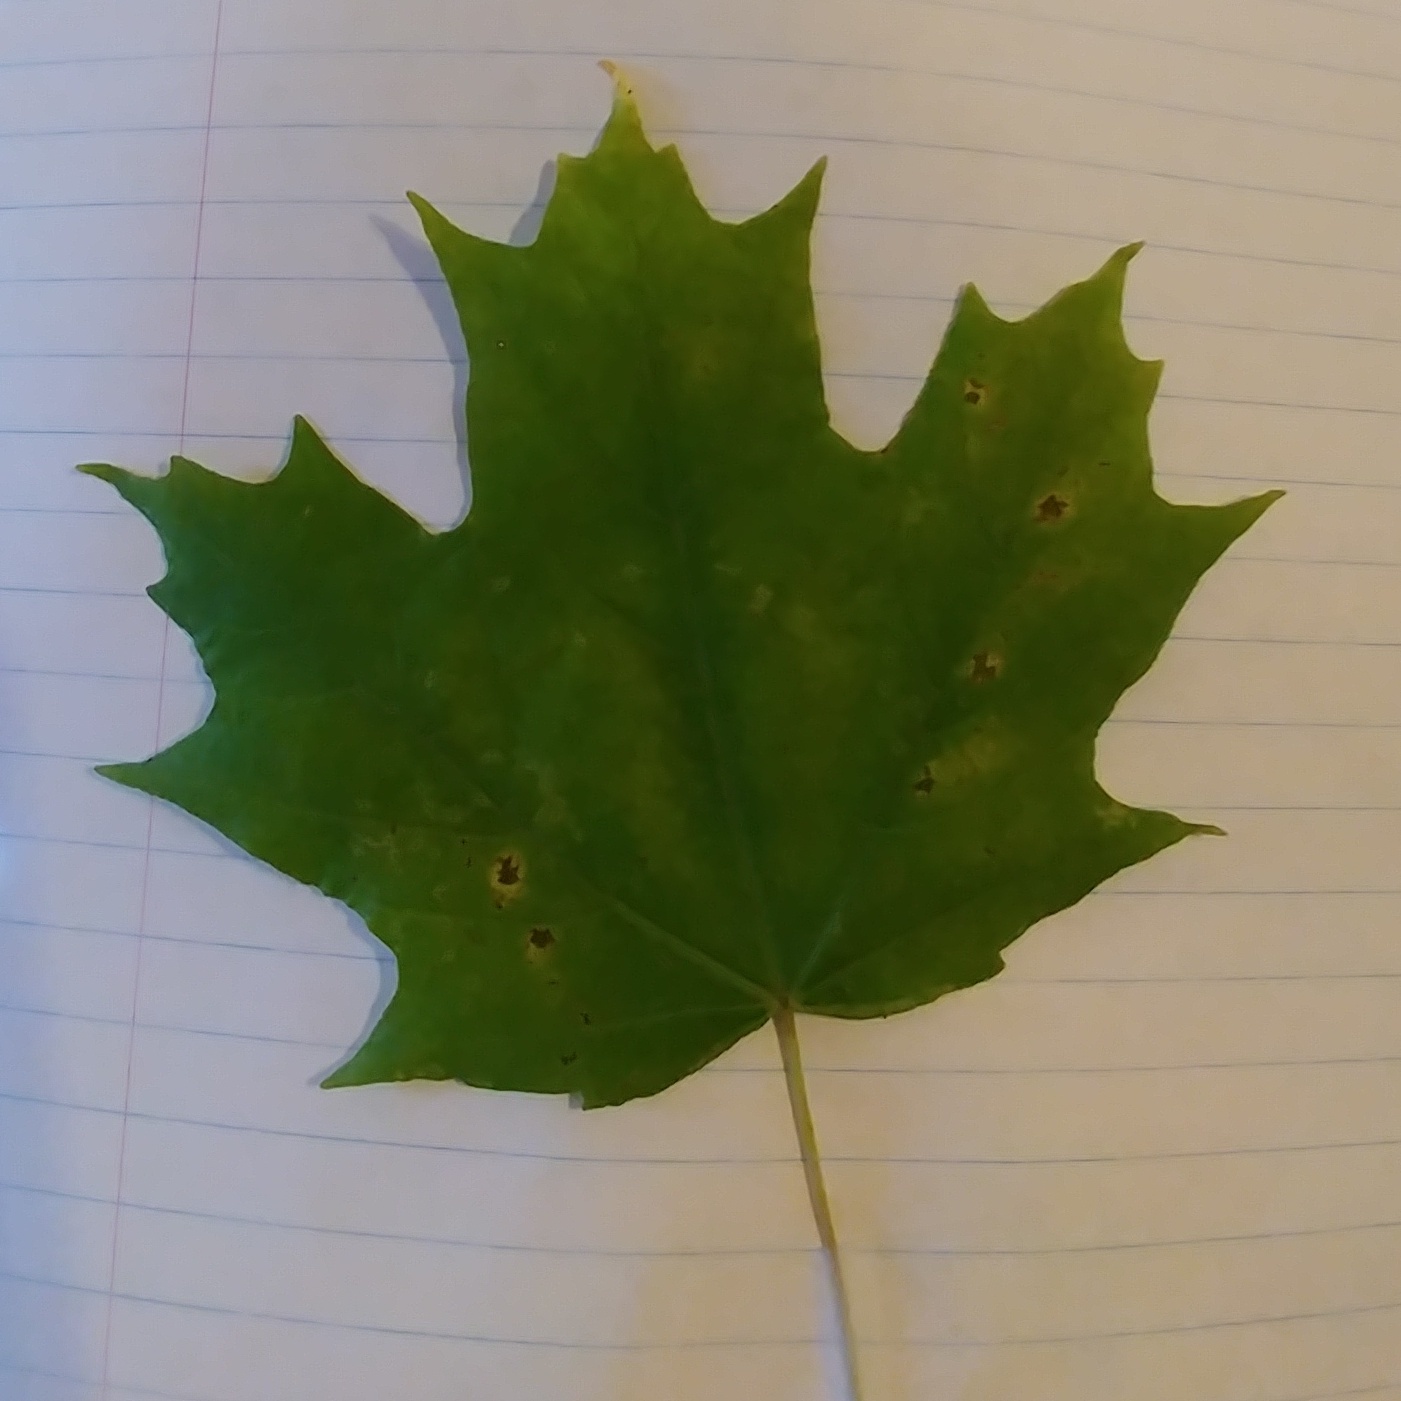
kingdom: Plantae
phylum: Tracheophyta
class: Magnoliopsida
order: Sapindales
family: Sapindaceae
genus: Acer
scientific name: Acer saccharum
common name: Sugar maple
